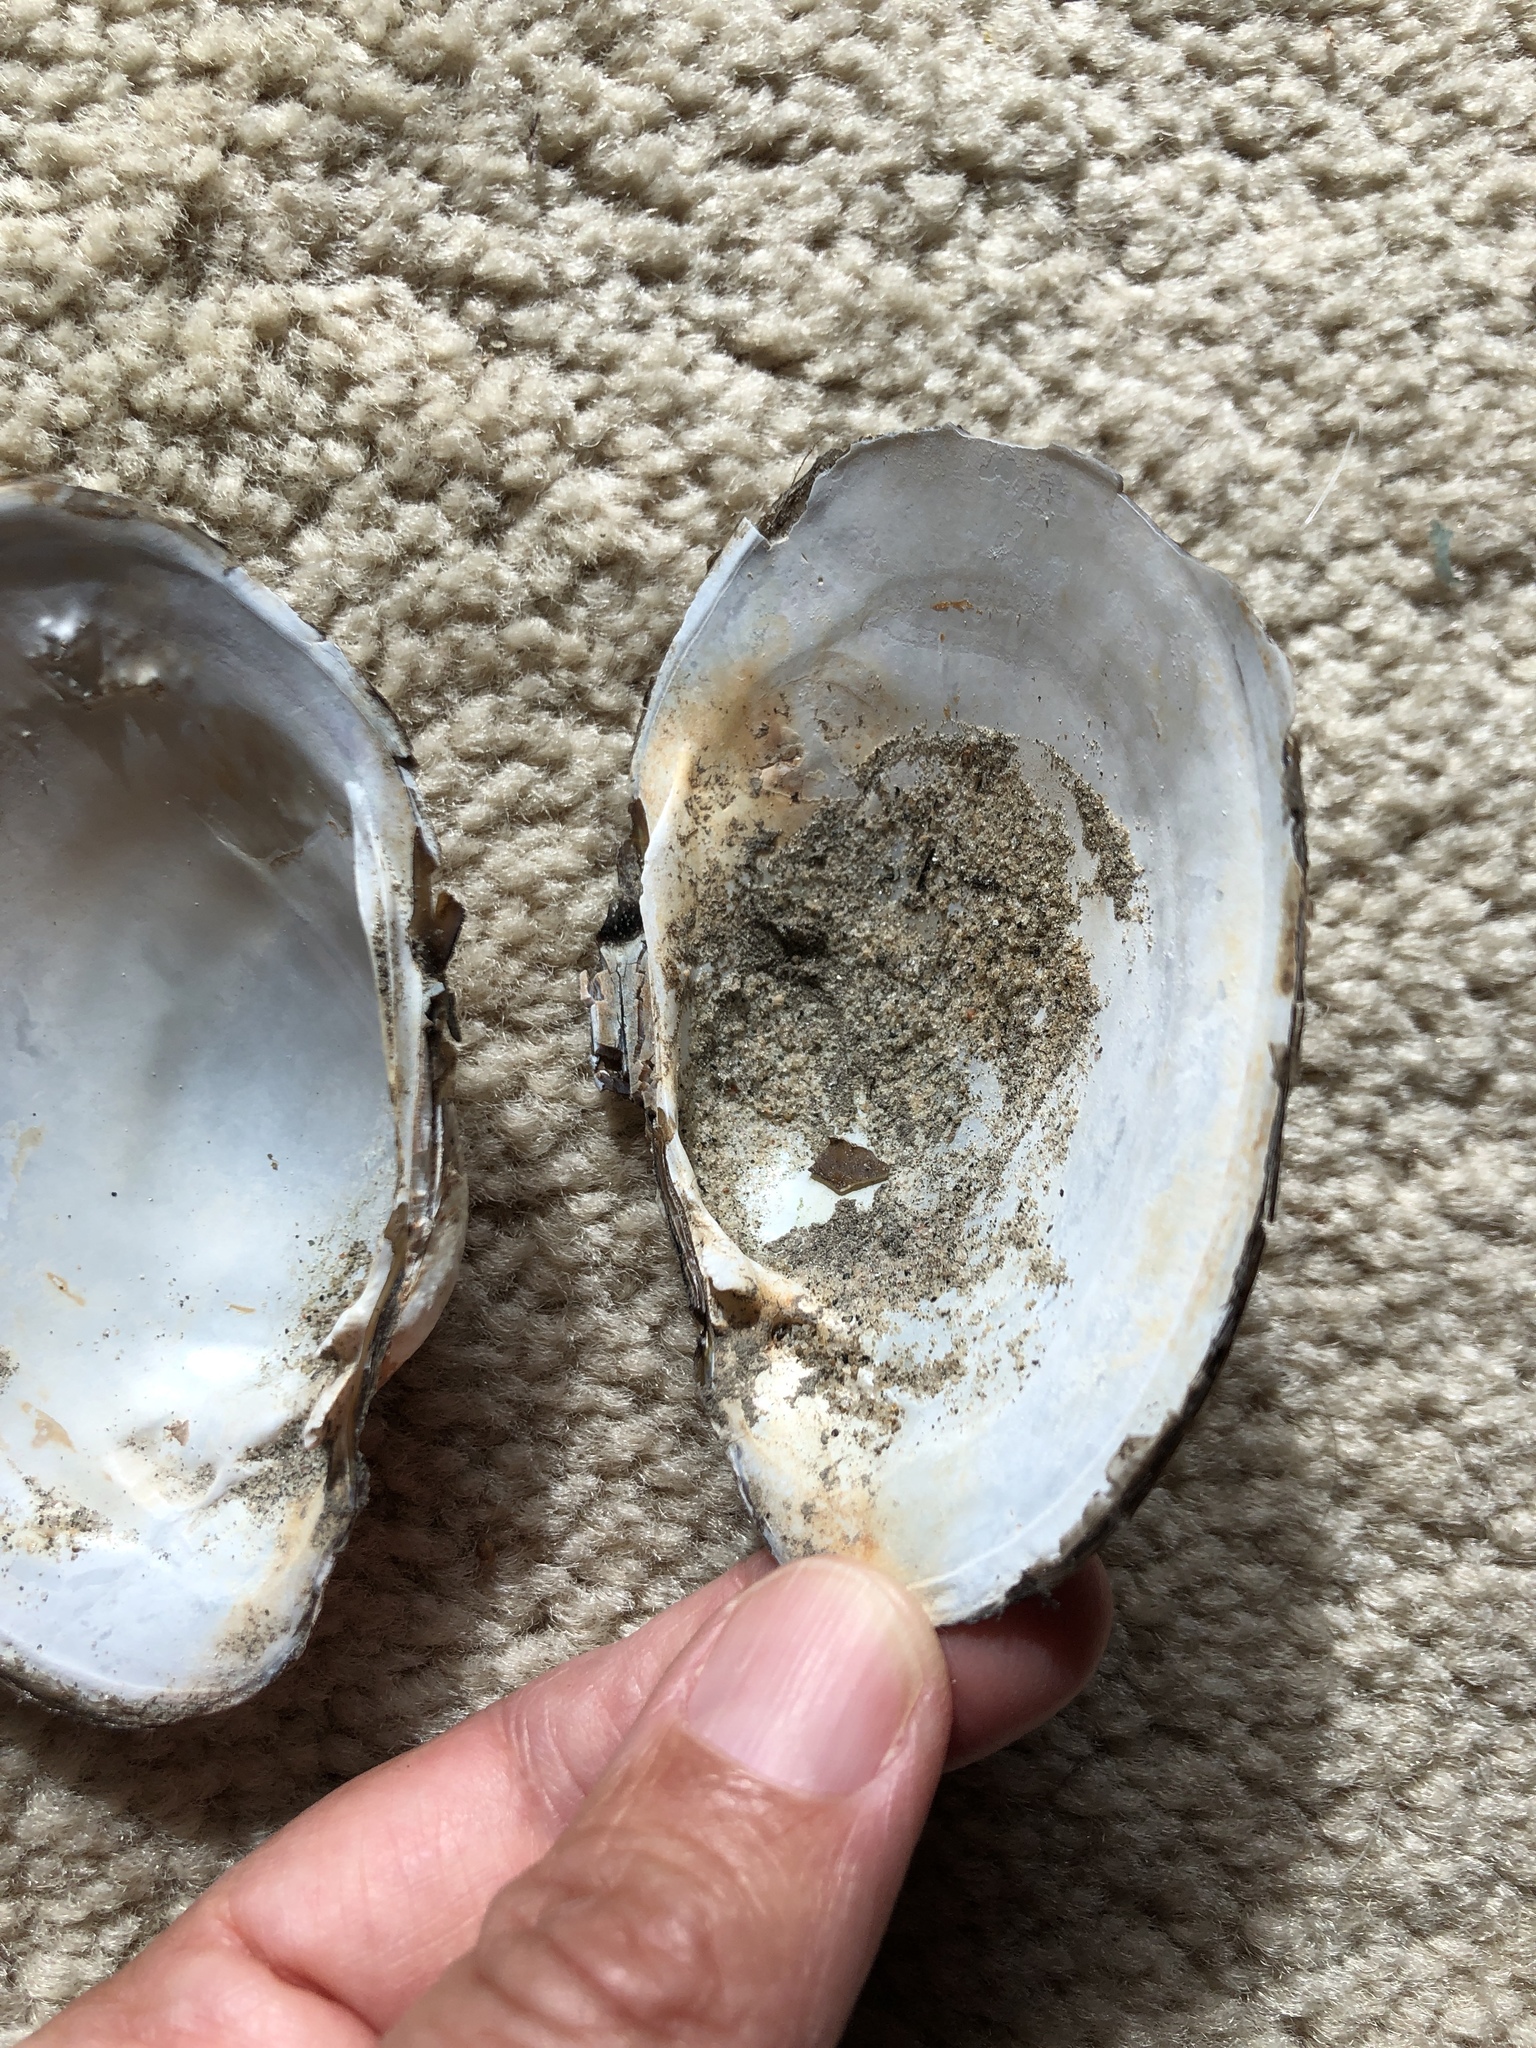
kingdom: Animalia
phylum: Mollusca
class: Bivalvia
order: Unionida
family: Unionidae
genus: Lampsilis
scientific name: Lampsilis cardium
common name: Plain pocketbook
